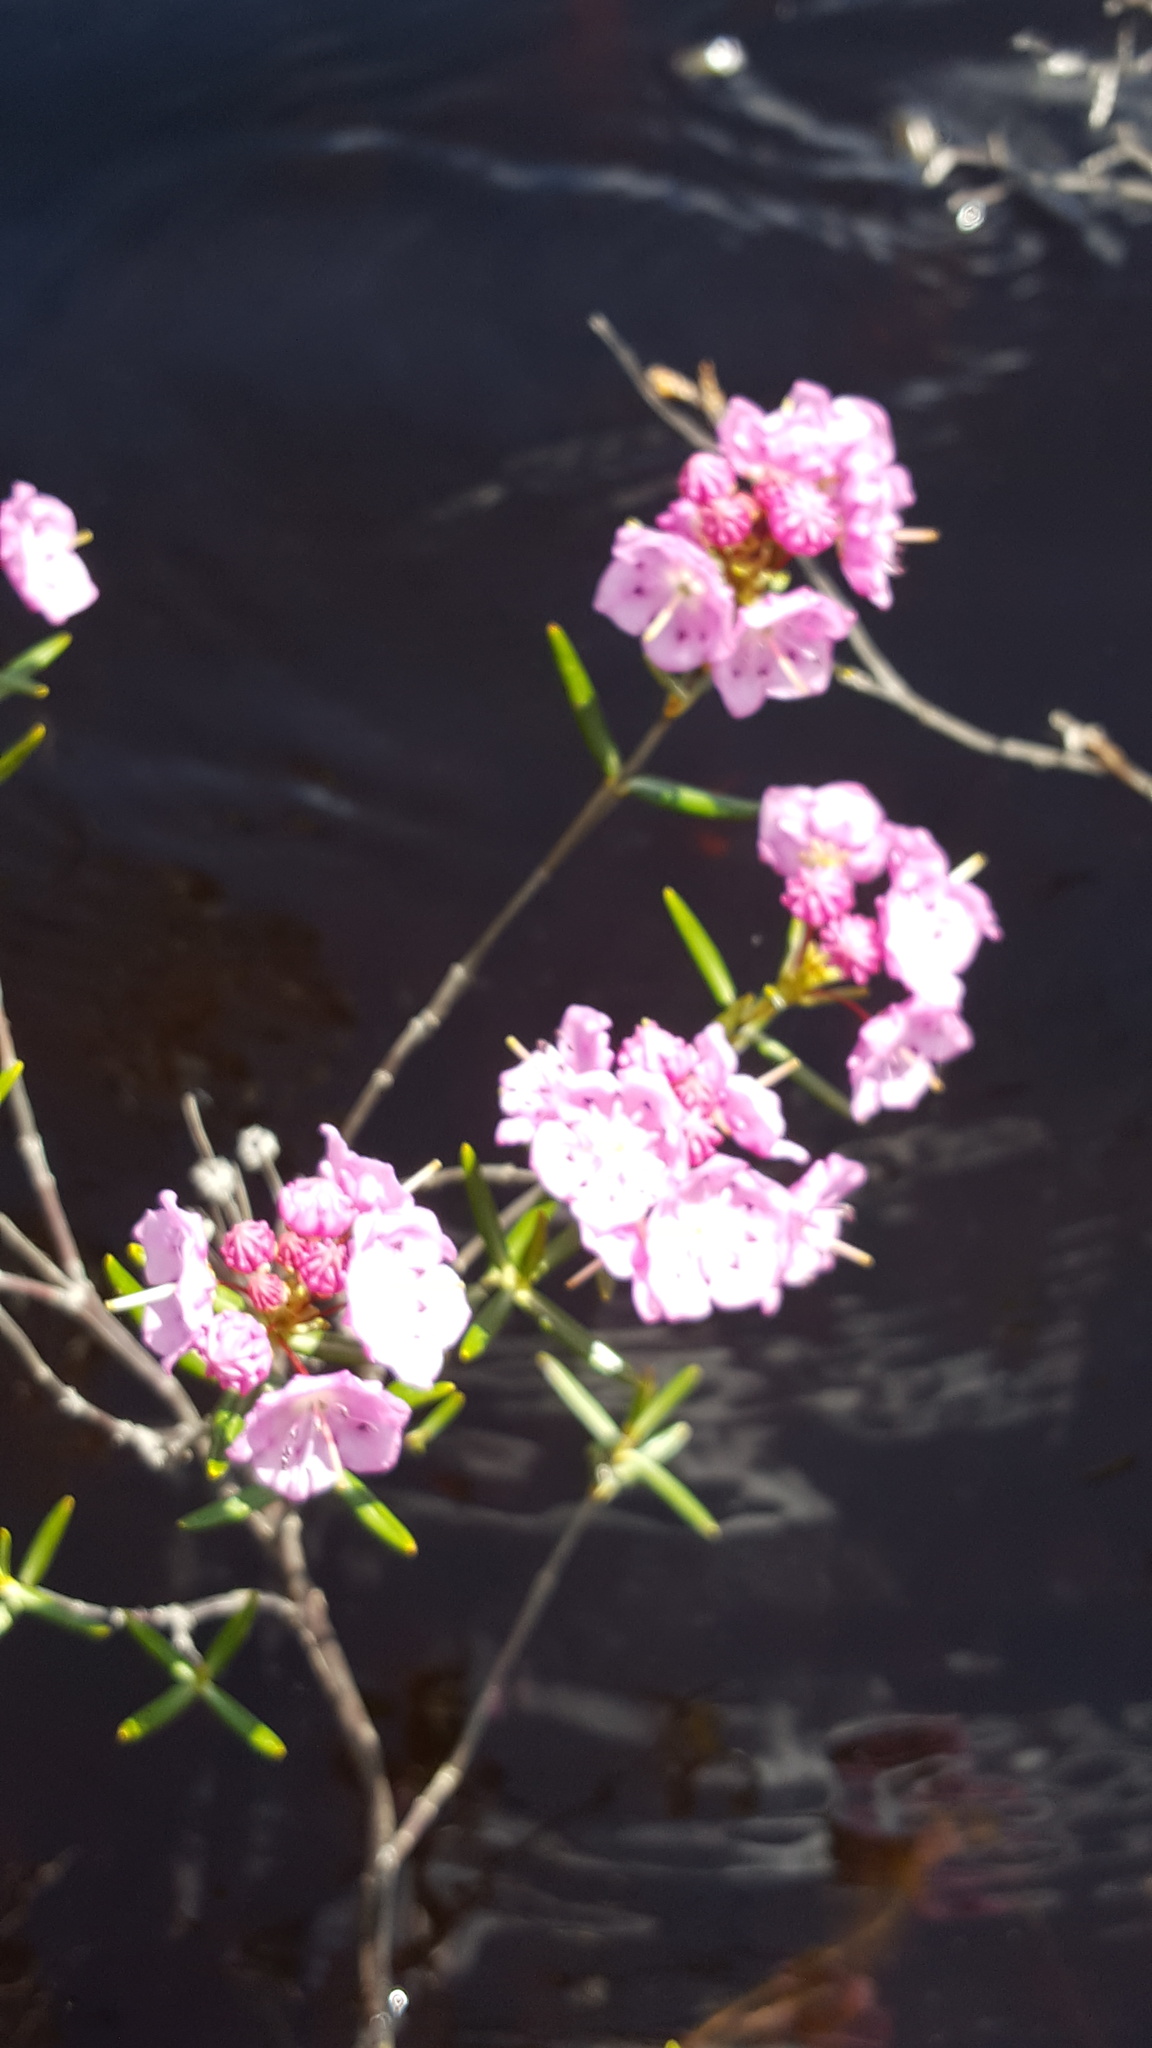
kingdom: Plantae
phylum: Tracheophyta
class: Magnoliopsida
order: Ericales
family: Ericaceae
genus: Kalmia
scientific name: Kalmia polifolia
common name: Bog-laurel
